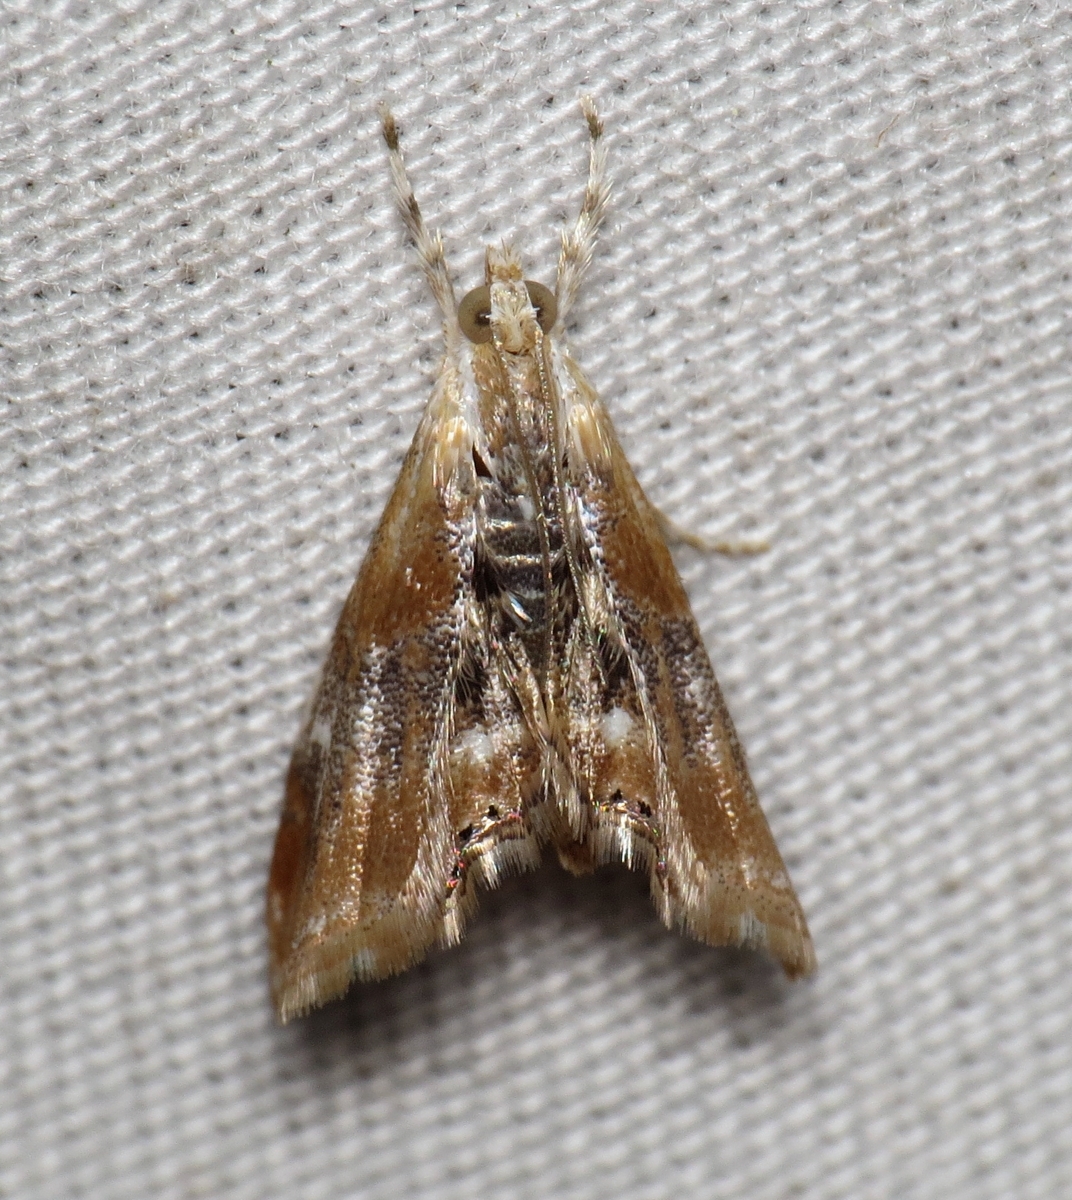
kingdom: Animalia
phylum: Arthropoda
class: Insecta
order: Lepidoptera
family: Crambidae
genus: Dicymolomia
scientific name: Dicymolomia julianalis
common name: Julia's dicymolomia moth
